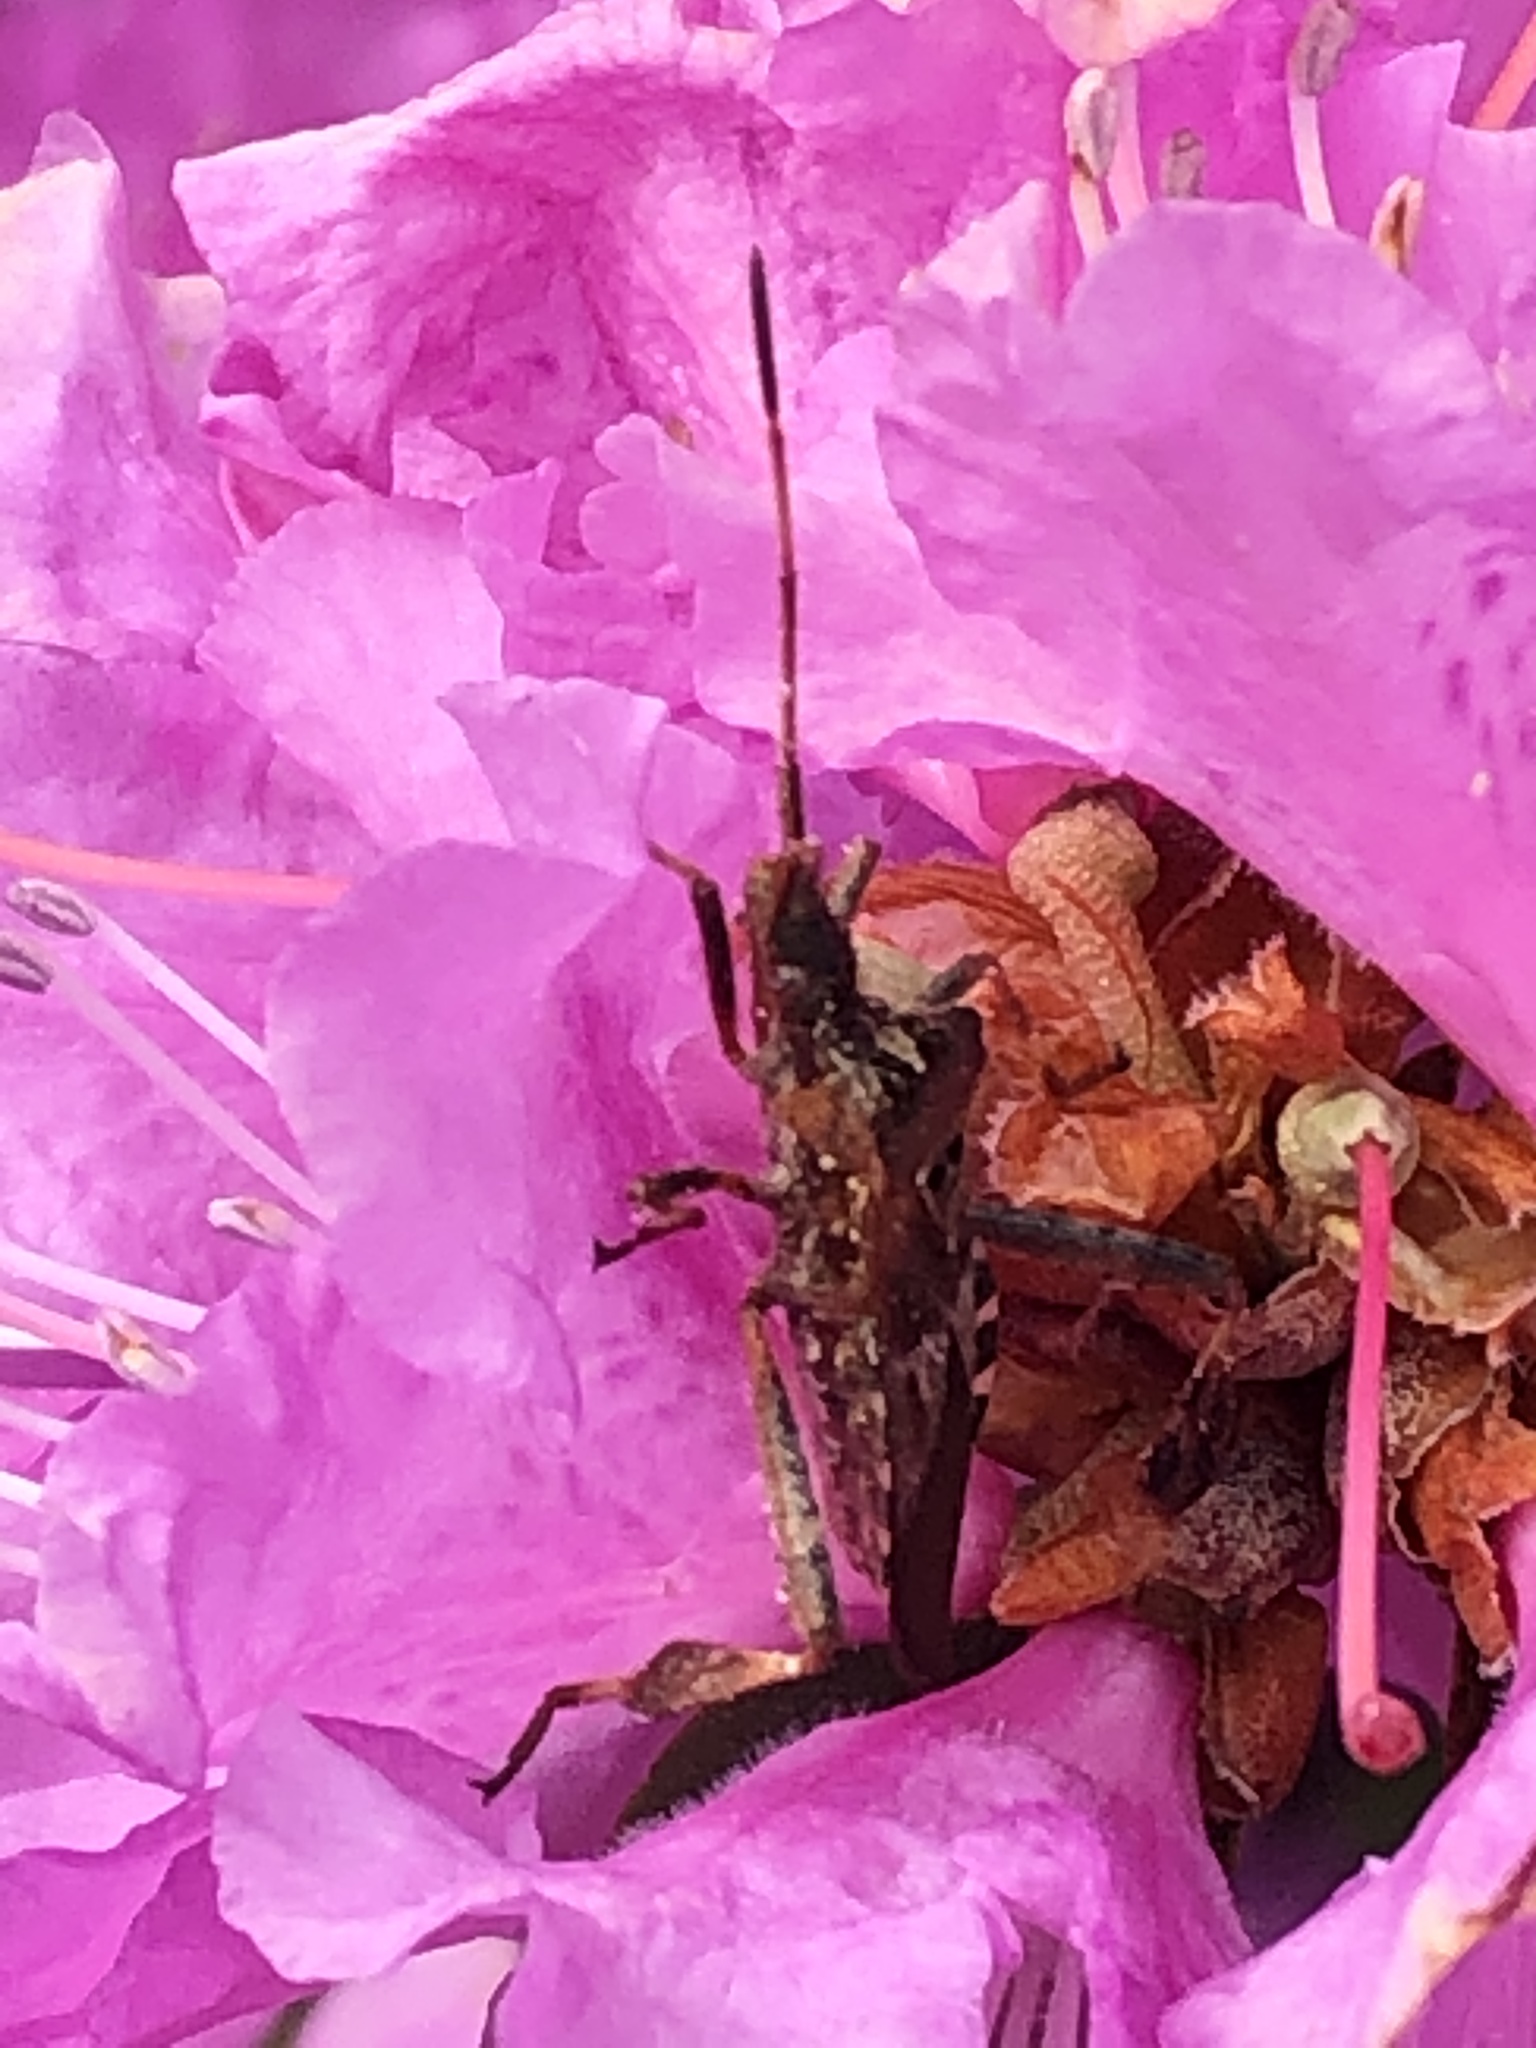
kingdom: Animalia
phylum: Arthropoda
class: Insecta
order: Hemiptera
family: Coreidae
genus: Leptoglossus
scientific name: Leptoglossus occidentalis
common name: Western conifer-seed bug
